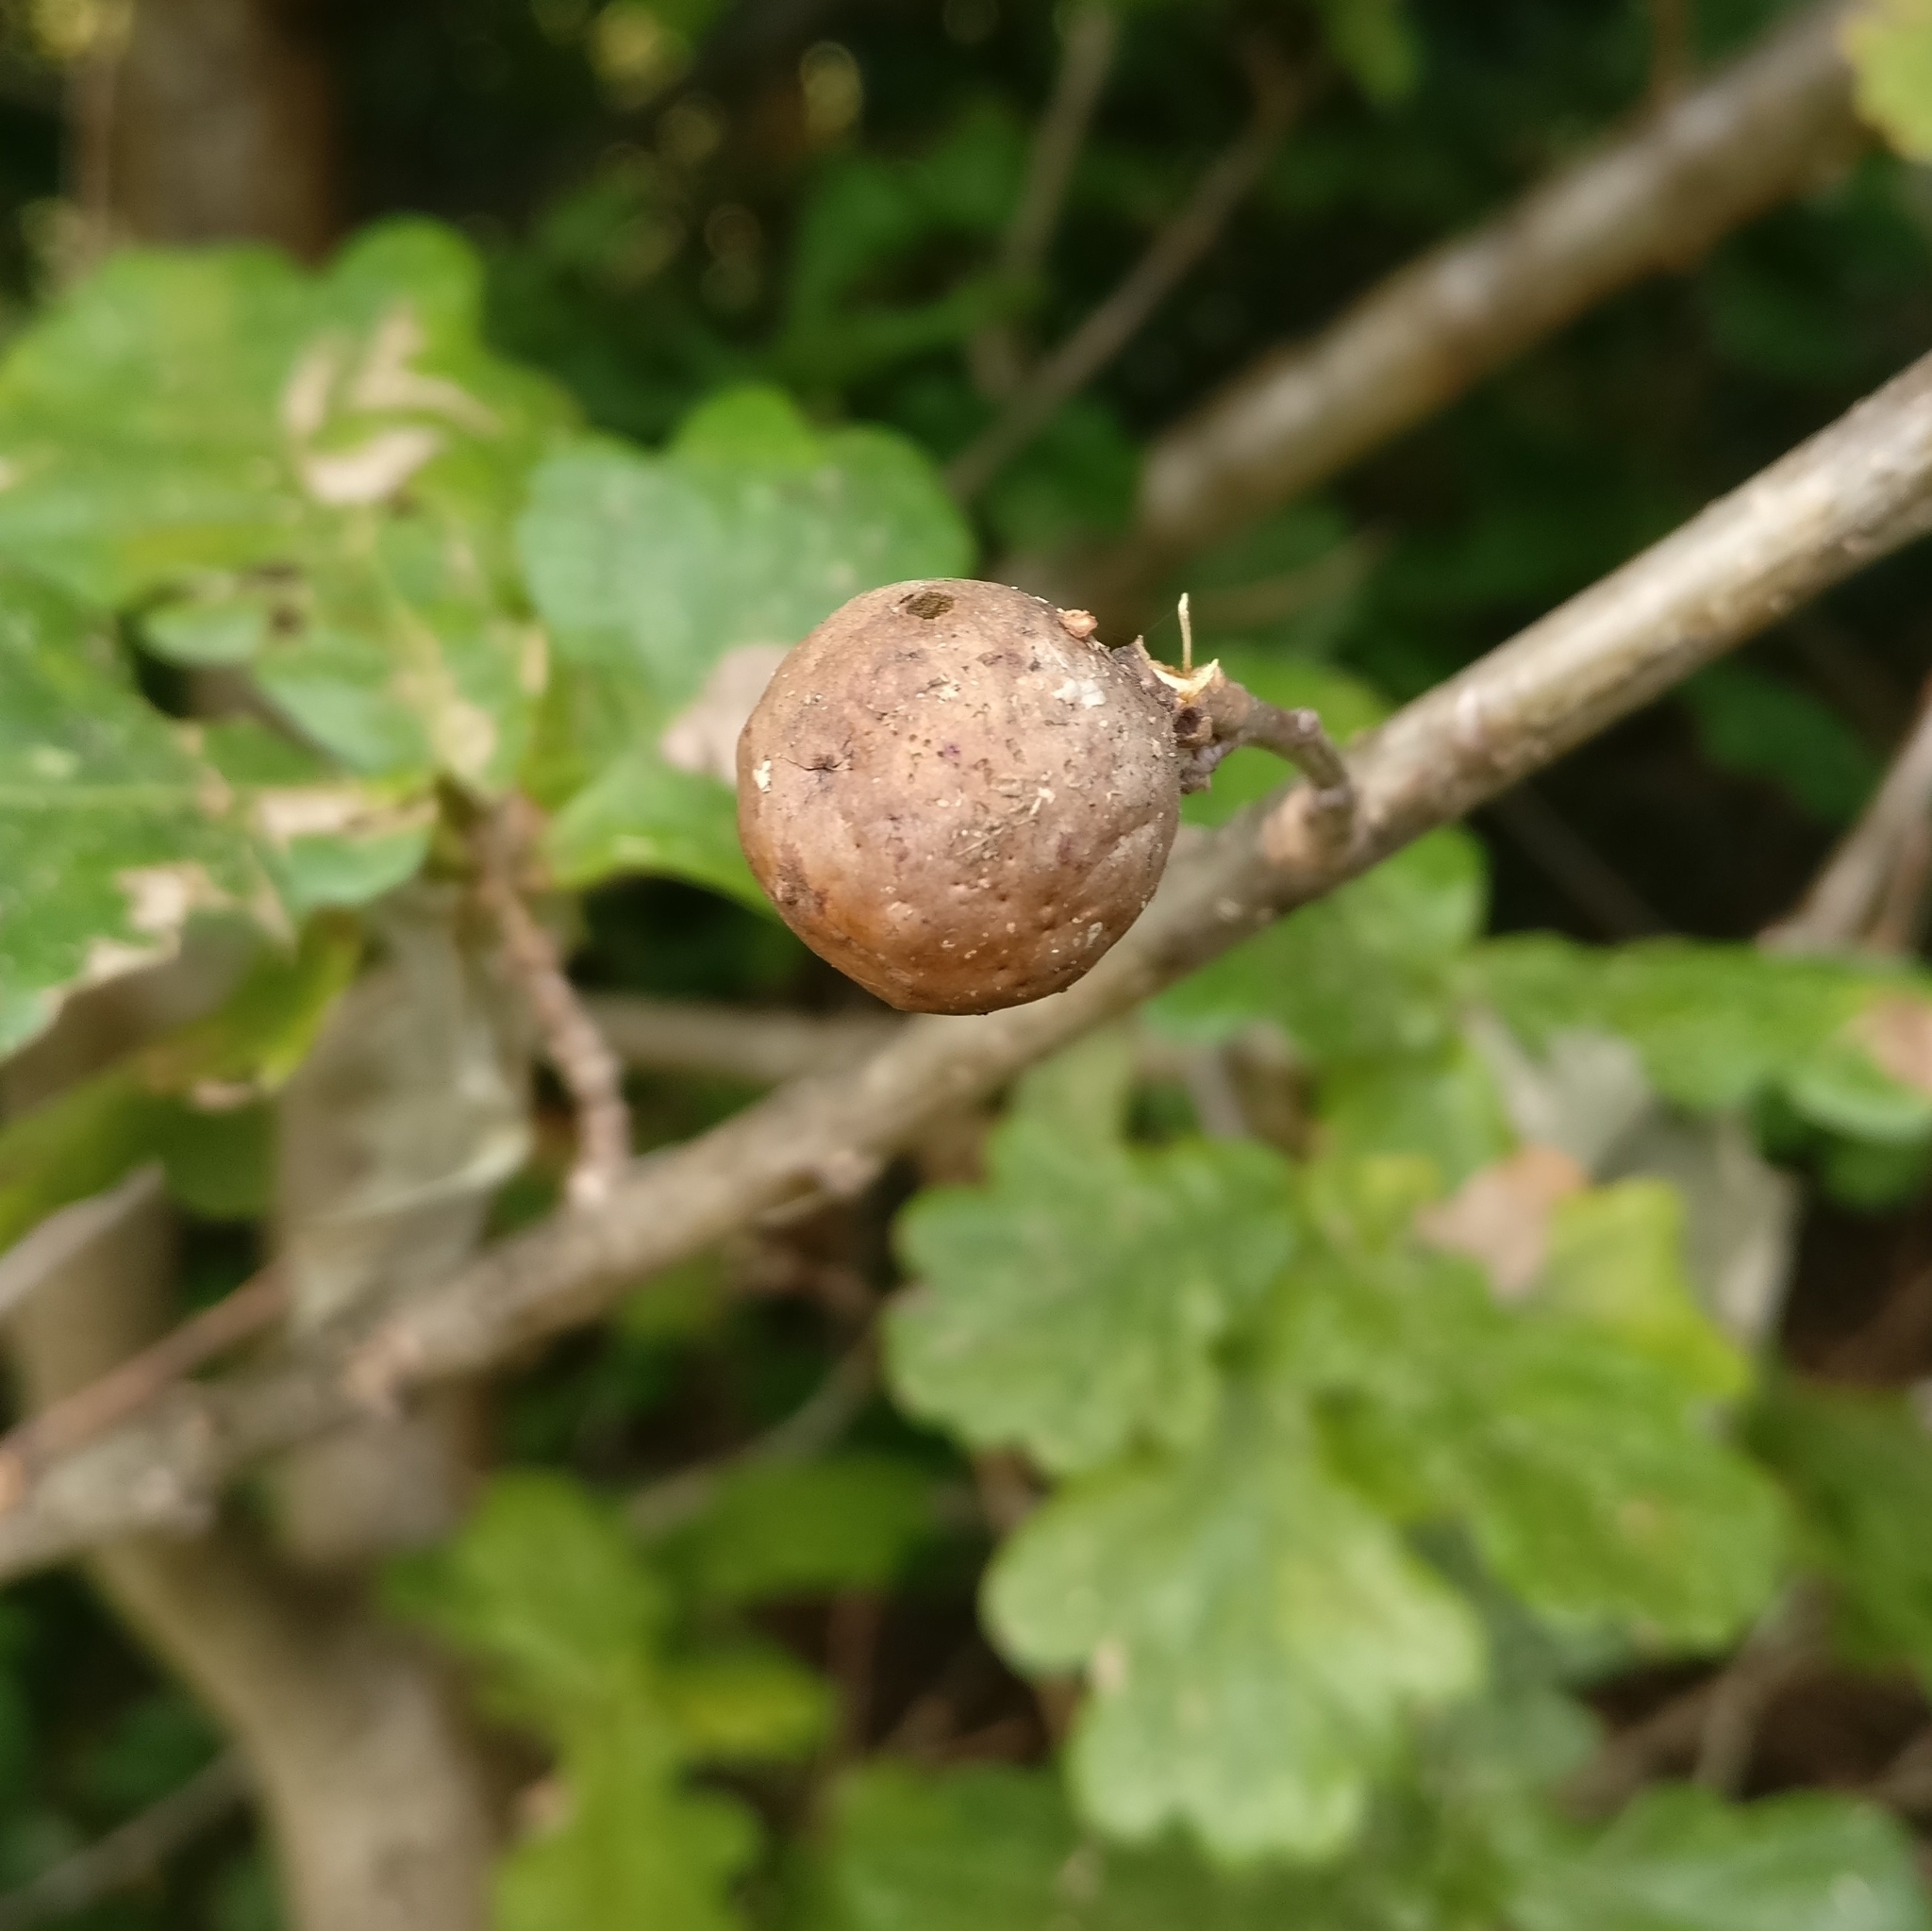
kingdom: Animalia
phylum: Arthropoda
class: Insecta
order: Hymenoptera
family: Cynipidae
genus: Andricus
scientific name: Andricus kollari
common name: Marble gall
